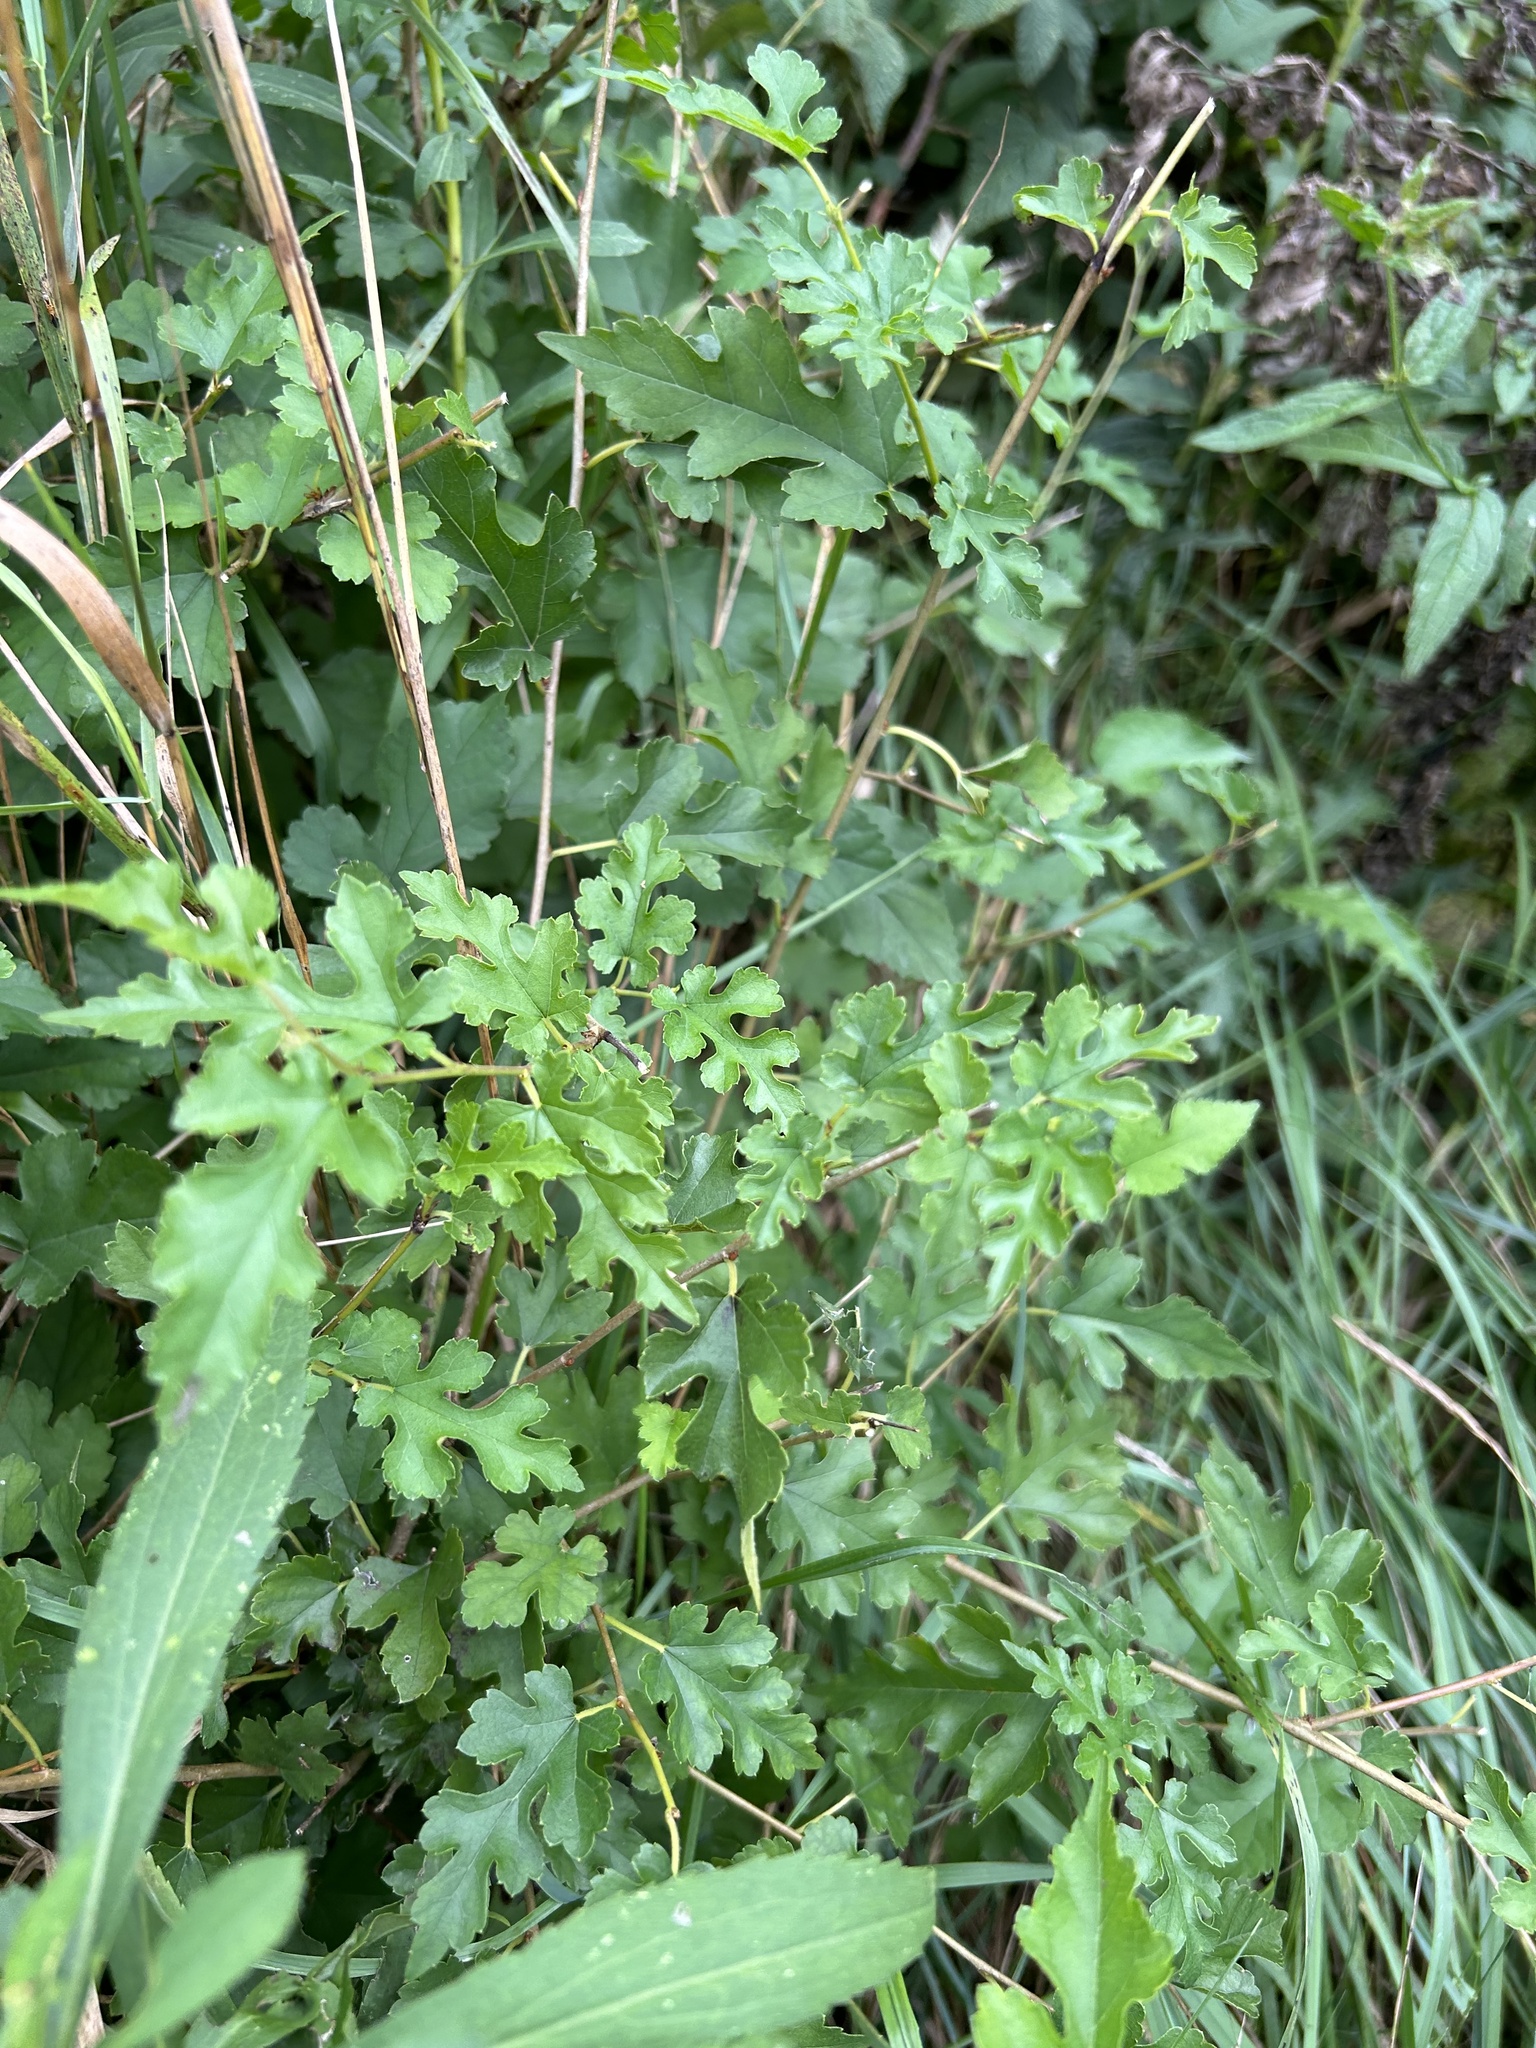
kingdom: Plantae
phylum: Tracheophyta
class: Magnoliopsida
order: Rosales
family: Moraceae
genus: Morus
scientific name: Morus alba
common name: White mulberry
